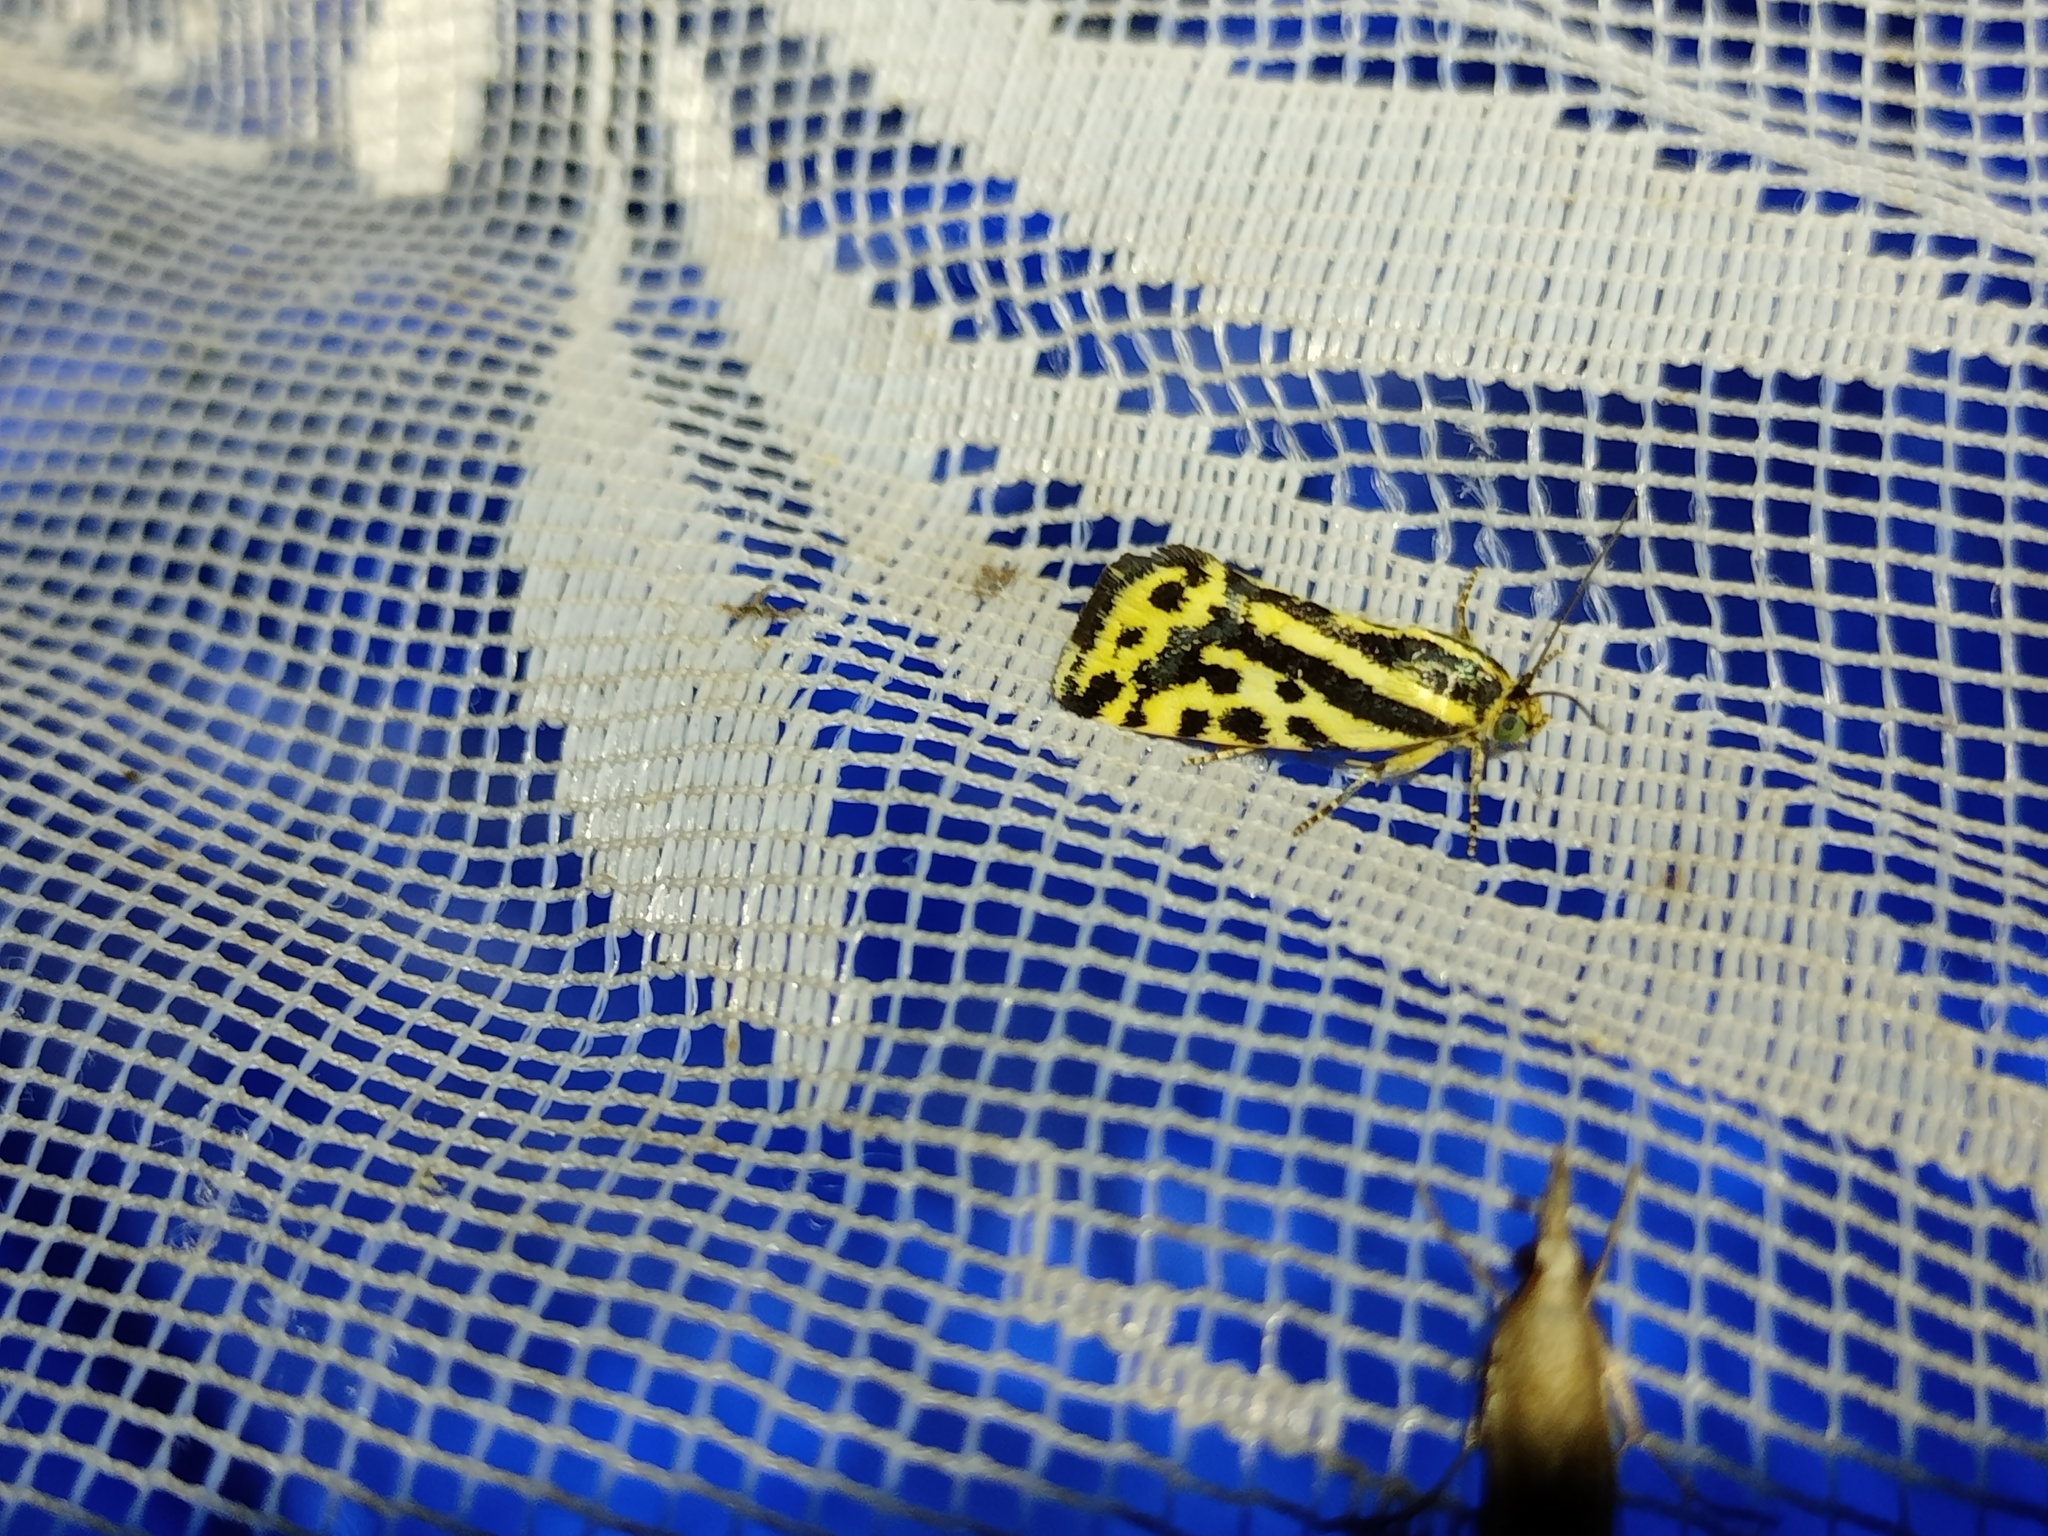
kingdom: Animalia
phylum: Arthropoda
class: Insecta
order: Lepidoptera
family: Noctuidae
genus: Acontia
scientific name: Acontia trabealis
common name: Spotted sulphur
